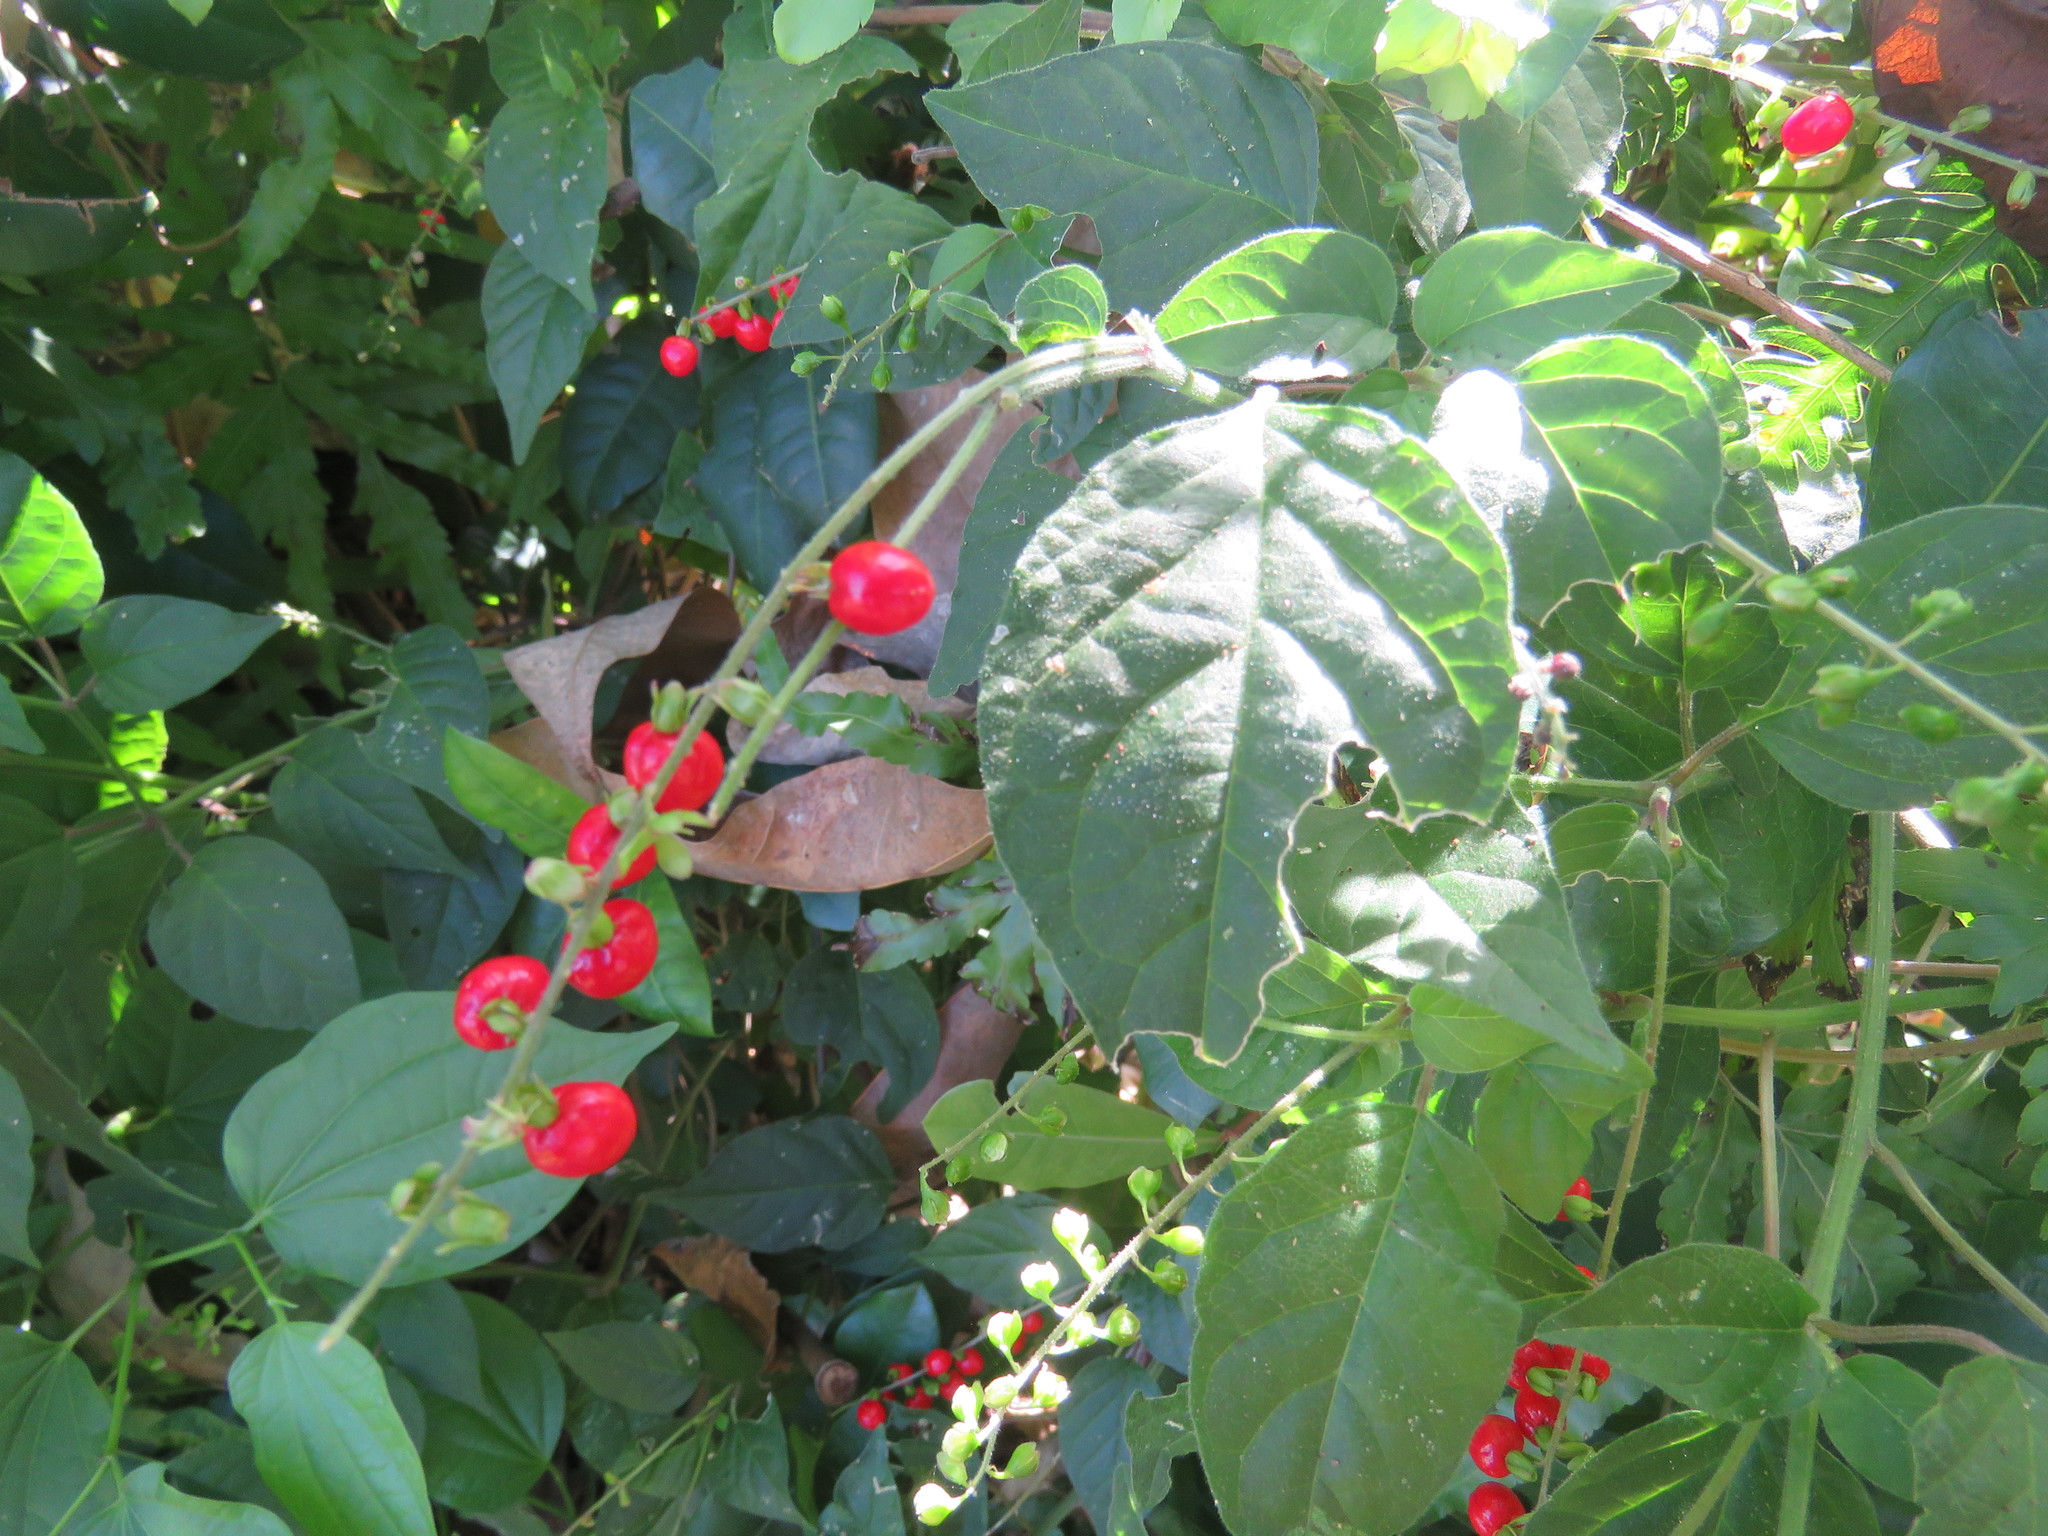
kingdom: Plantae
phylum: Tracheophyta
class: Magnoliopsida
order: Caryophyllales
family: Phytolaccaceae
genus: Rivina
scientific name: Rivina humilis
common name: Rougeplant
